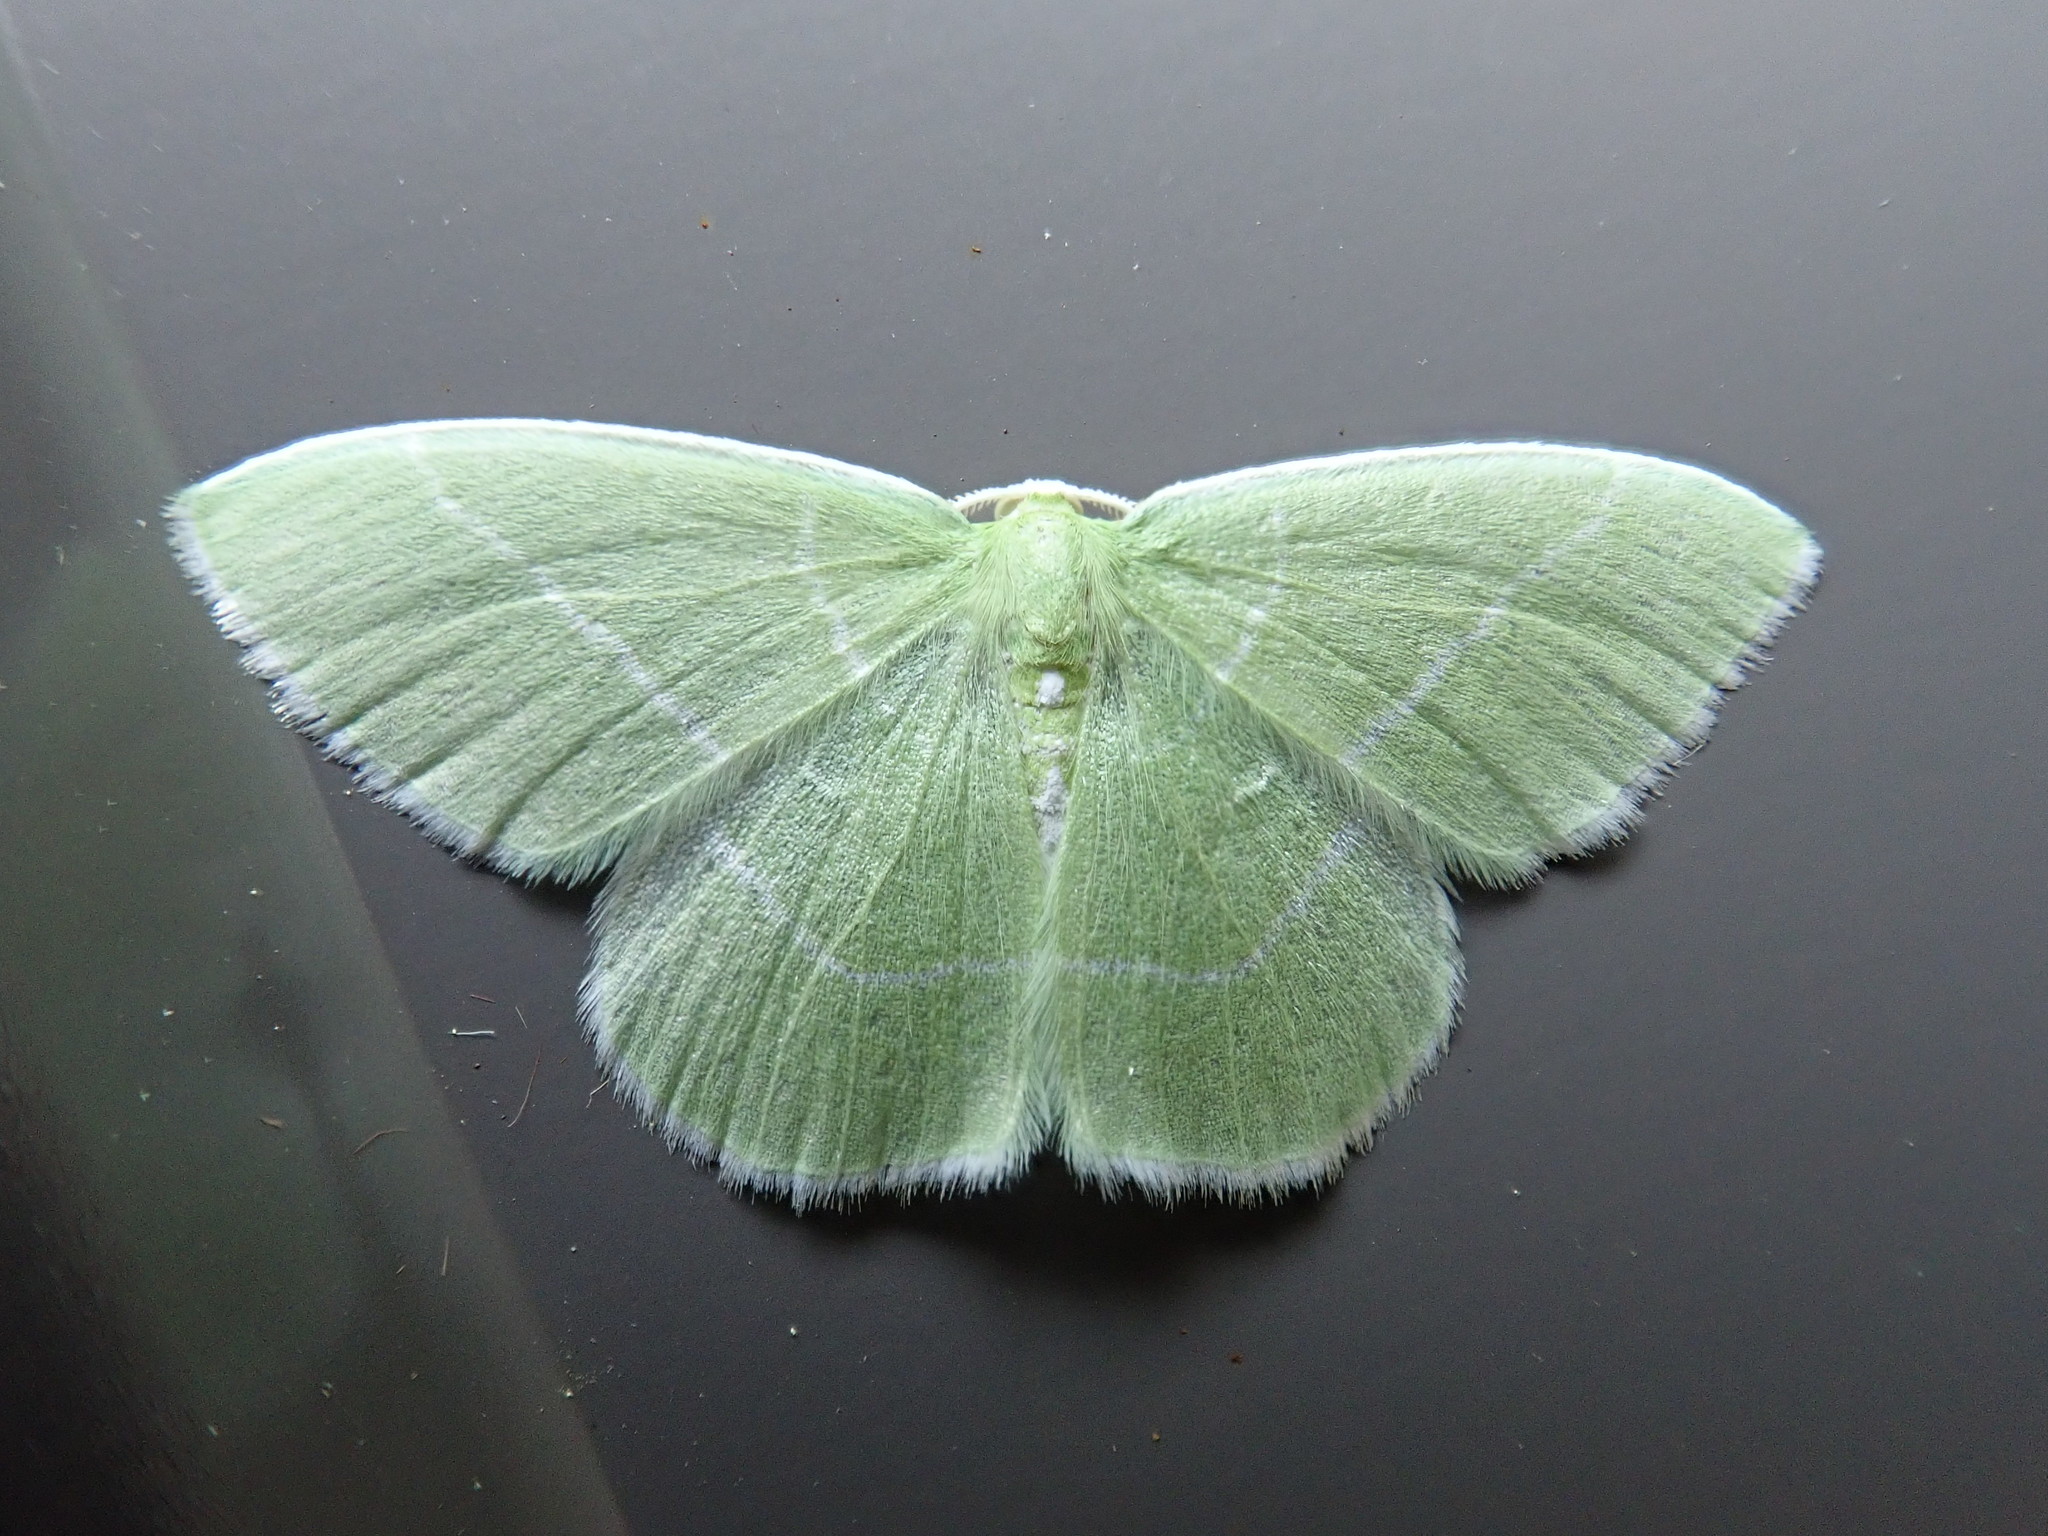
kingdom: Animalia
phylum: Arthropoda
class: Insecta
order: Lepidoptera
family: Geometridae
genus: Nemoria
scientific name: Nemoria mimosaria
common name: White-fringed emerald
